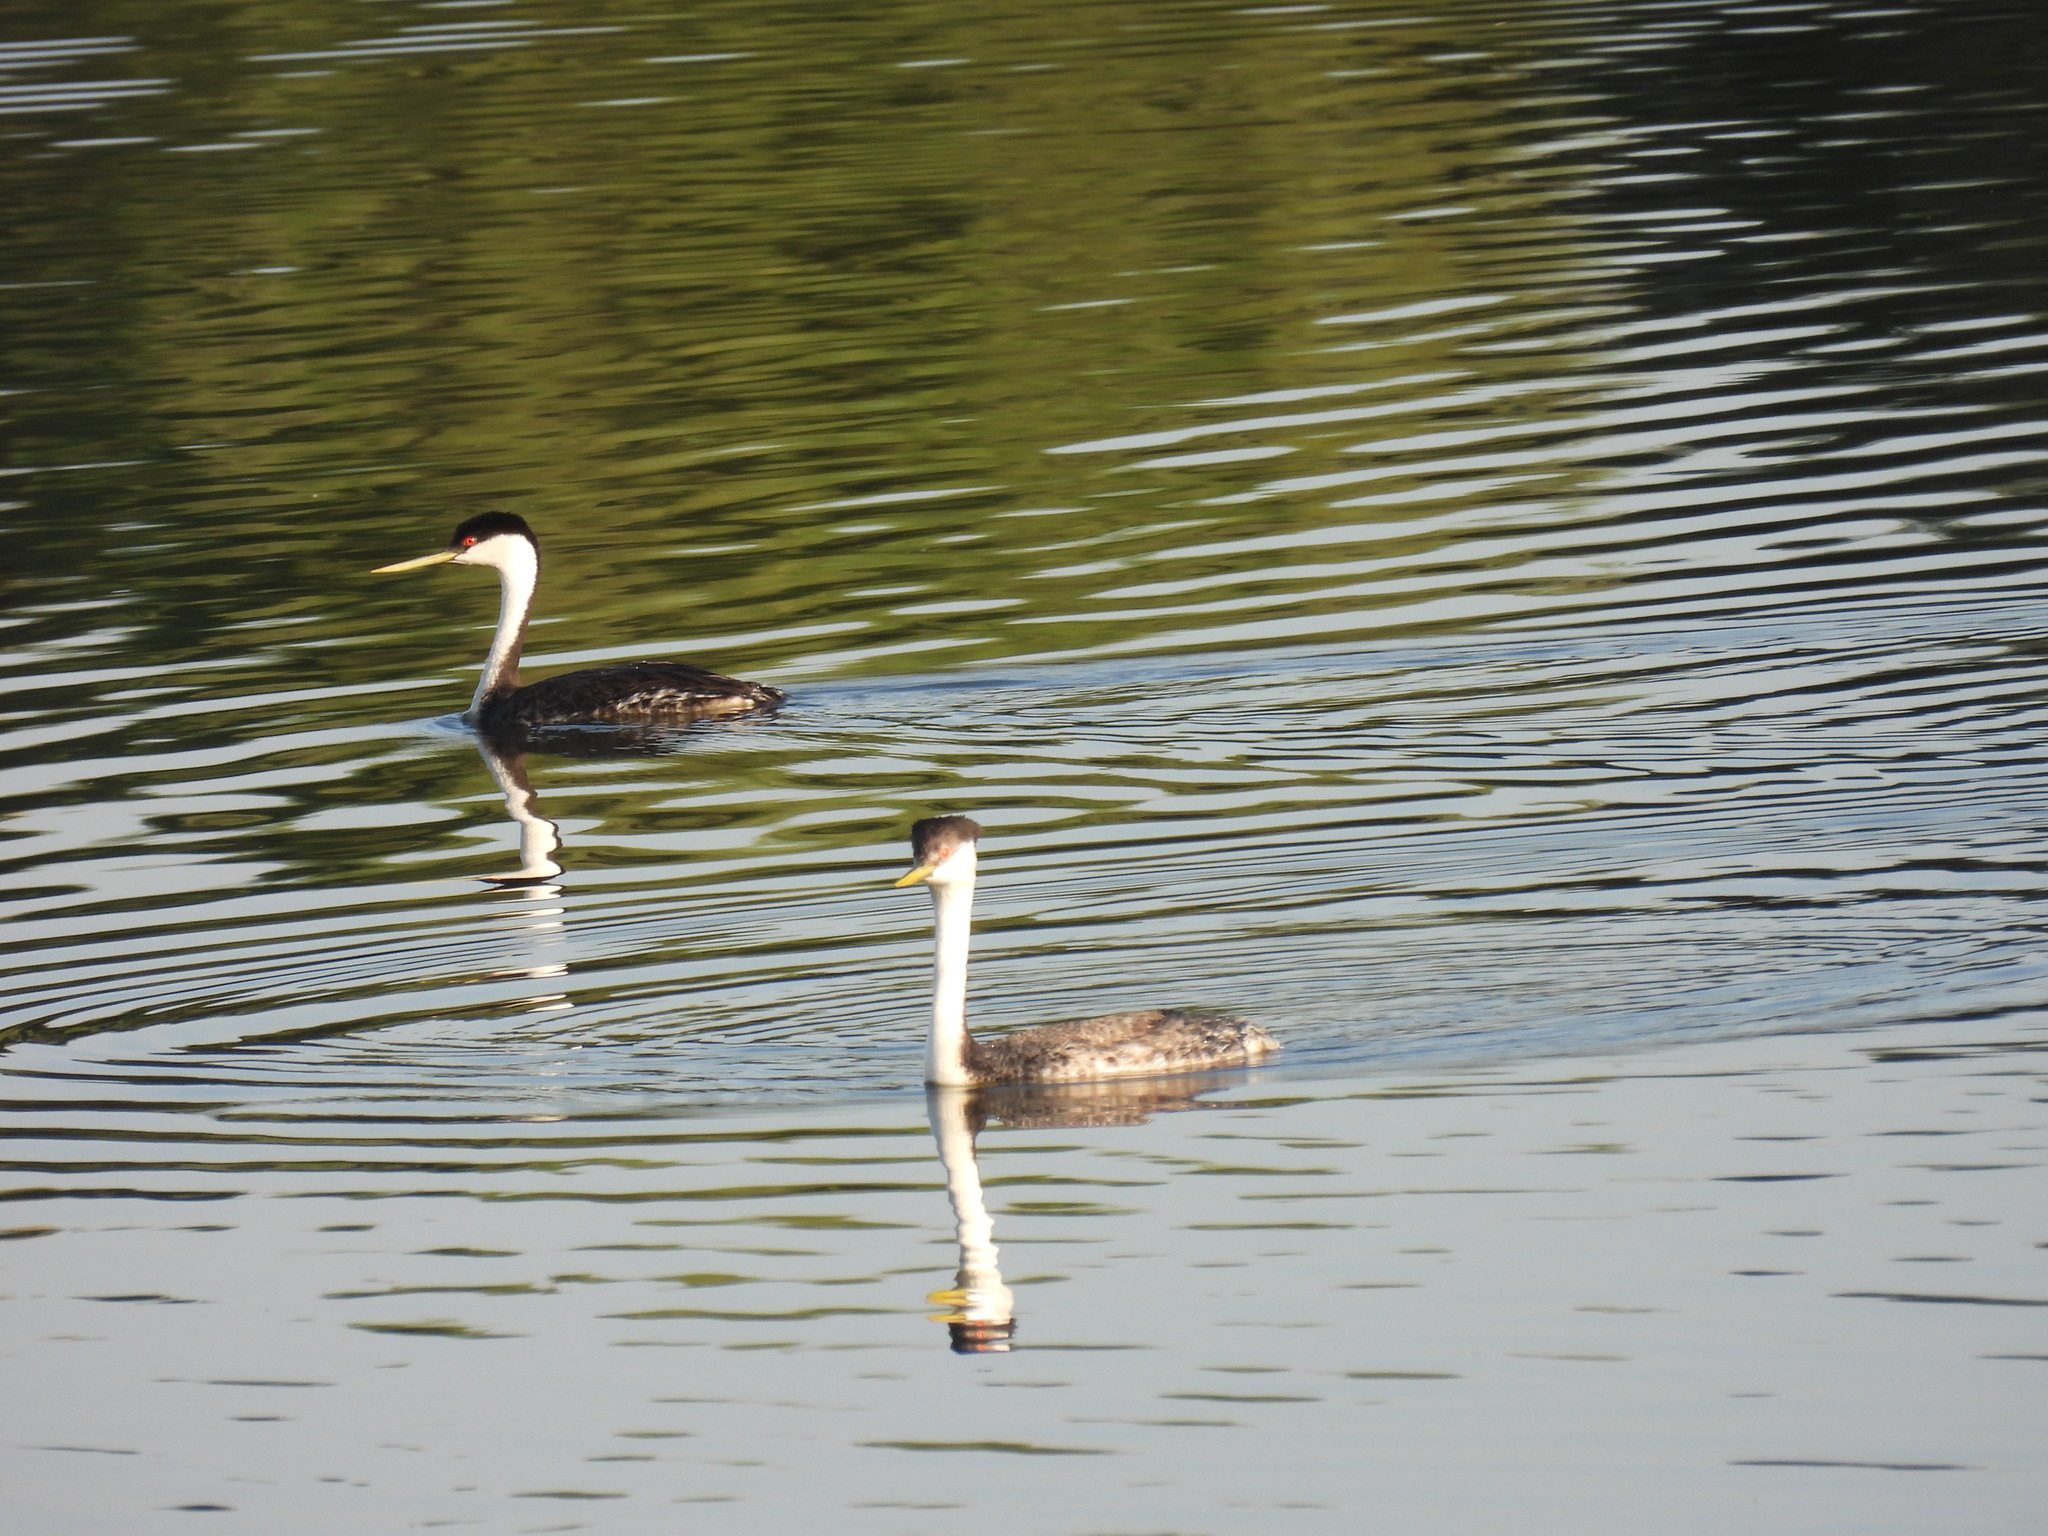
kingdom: Animalia
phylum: Chordata
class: Aves
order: Podicipediformes
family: Podicipedidae
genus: Aechmophorus
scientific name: Aechmophorus occidentalis
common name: Western grebe
